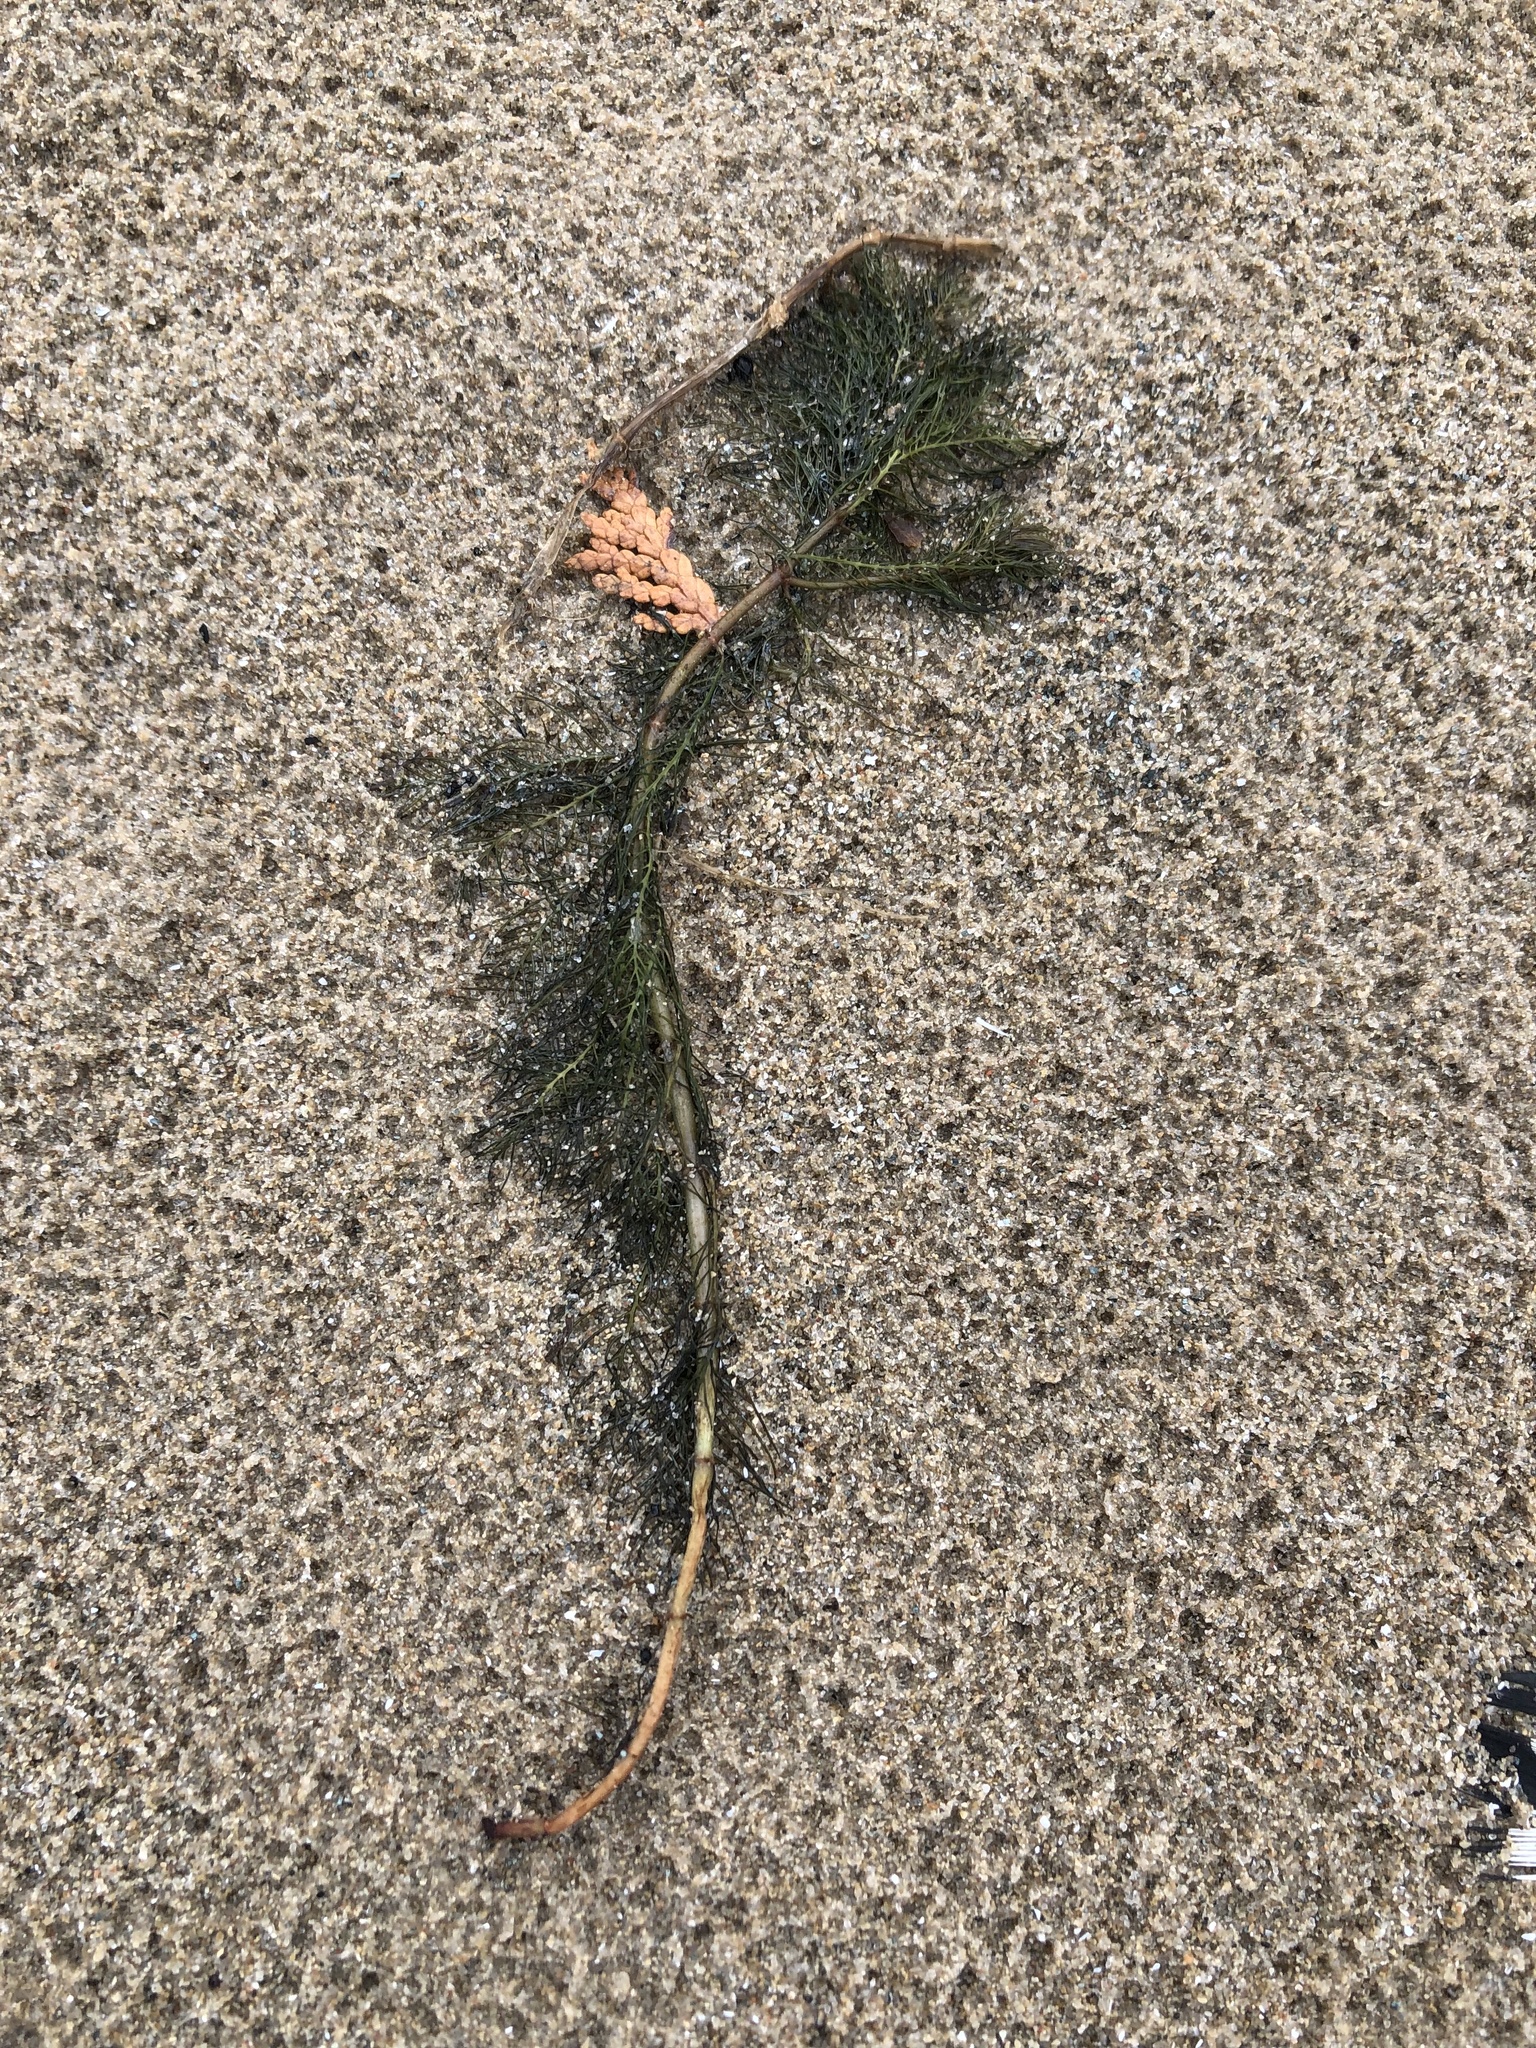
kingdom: Plantae
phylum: Tracheophyta
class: Magnoliopsida
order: Saxifragales
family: Haloragaceae
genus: Myriophyllum
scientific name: Myriophyllum spicatum
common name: Spiked water-milfoil
